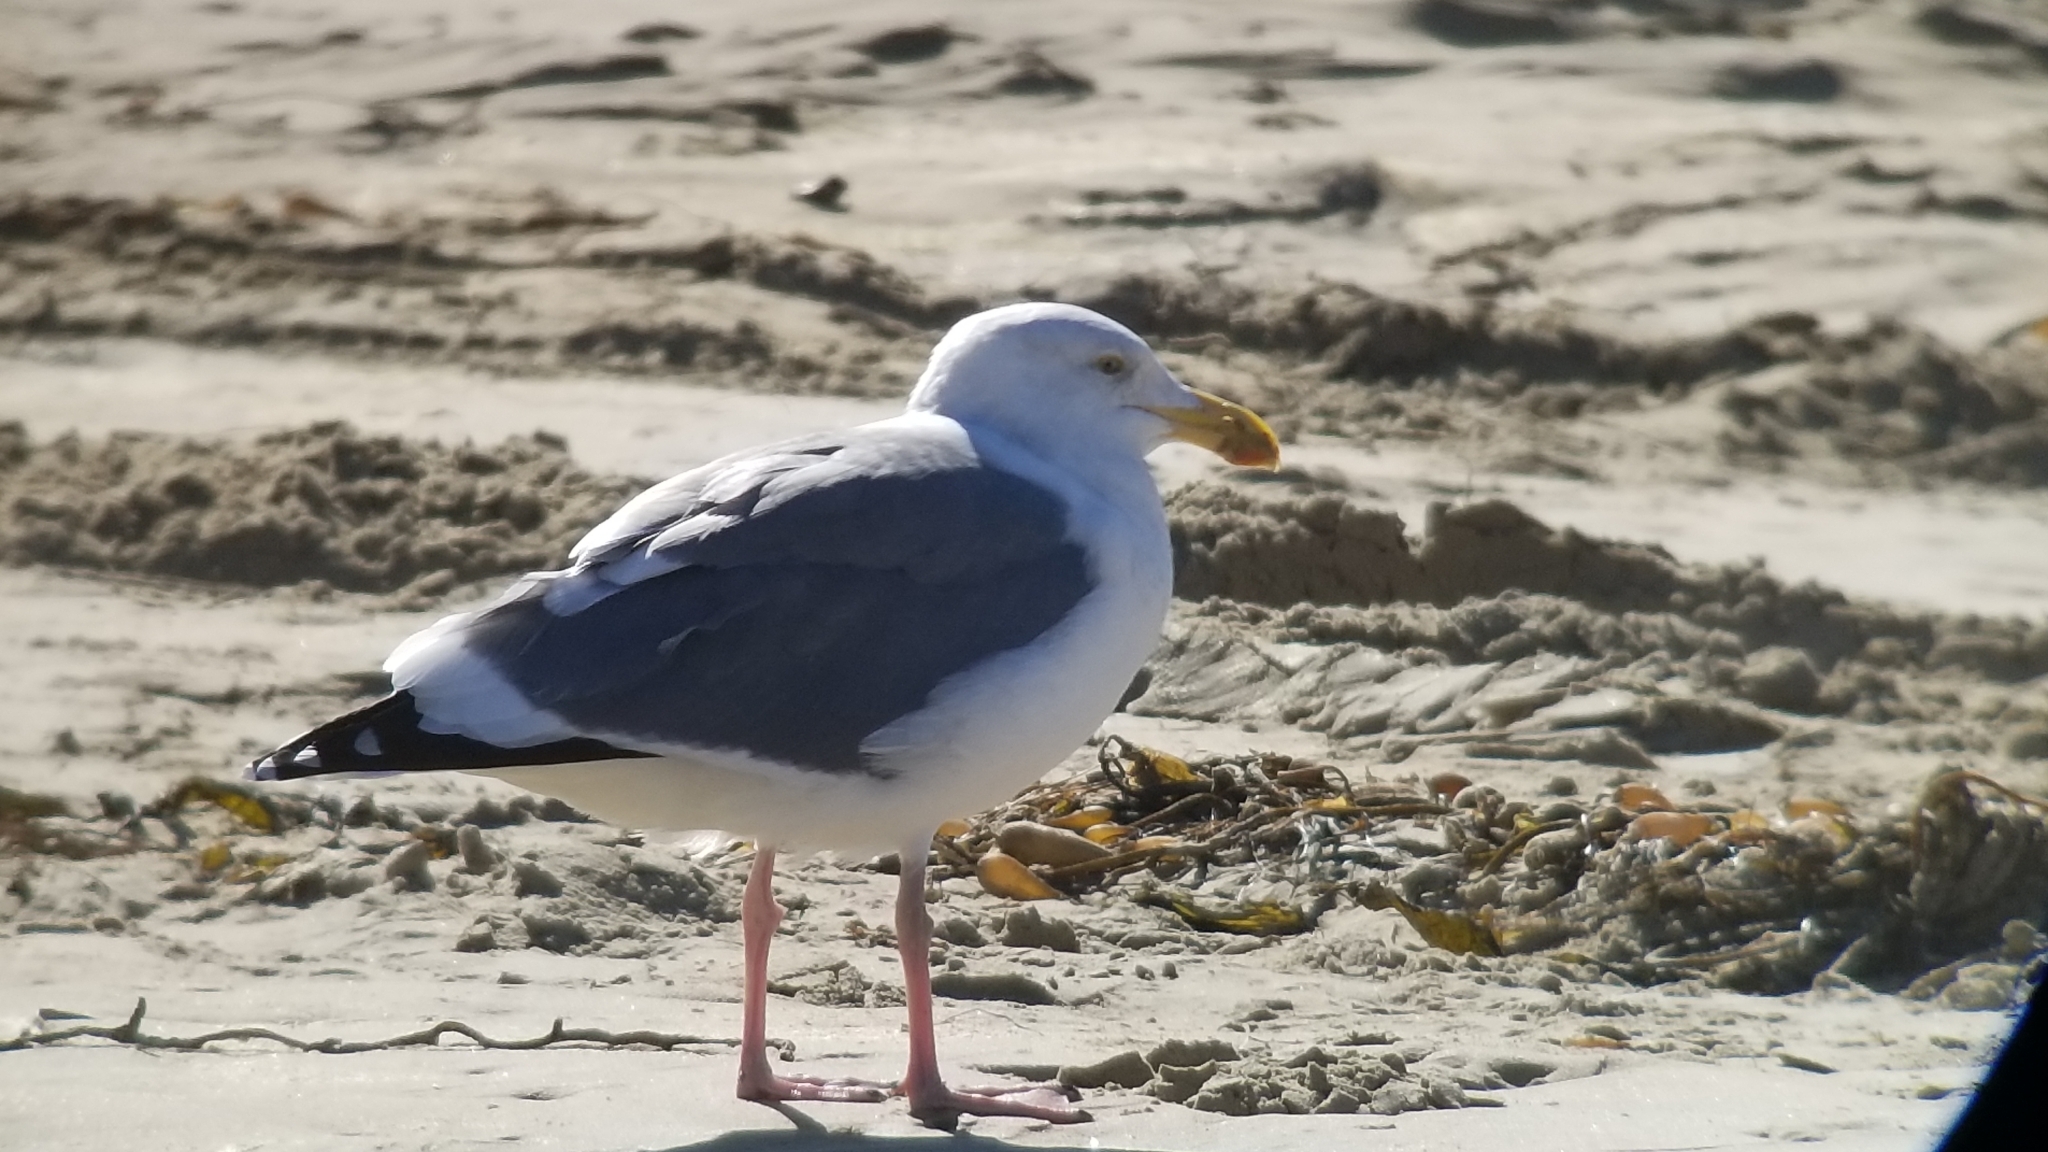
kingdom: Animalia
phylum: Chordata
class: Aves
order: Charadriiformes
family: Laridae
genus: Larus
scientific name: Larus occidentalis
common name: Western gull
